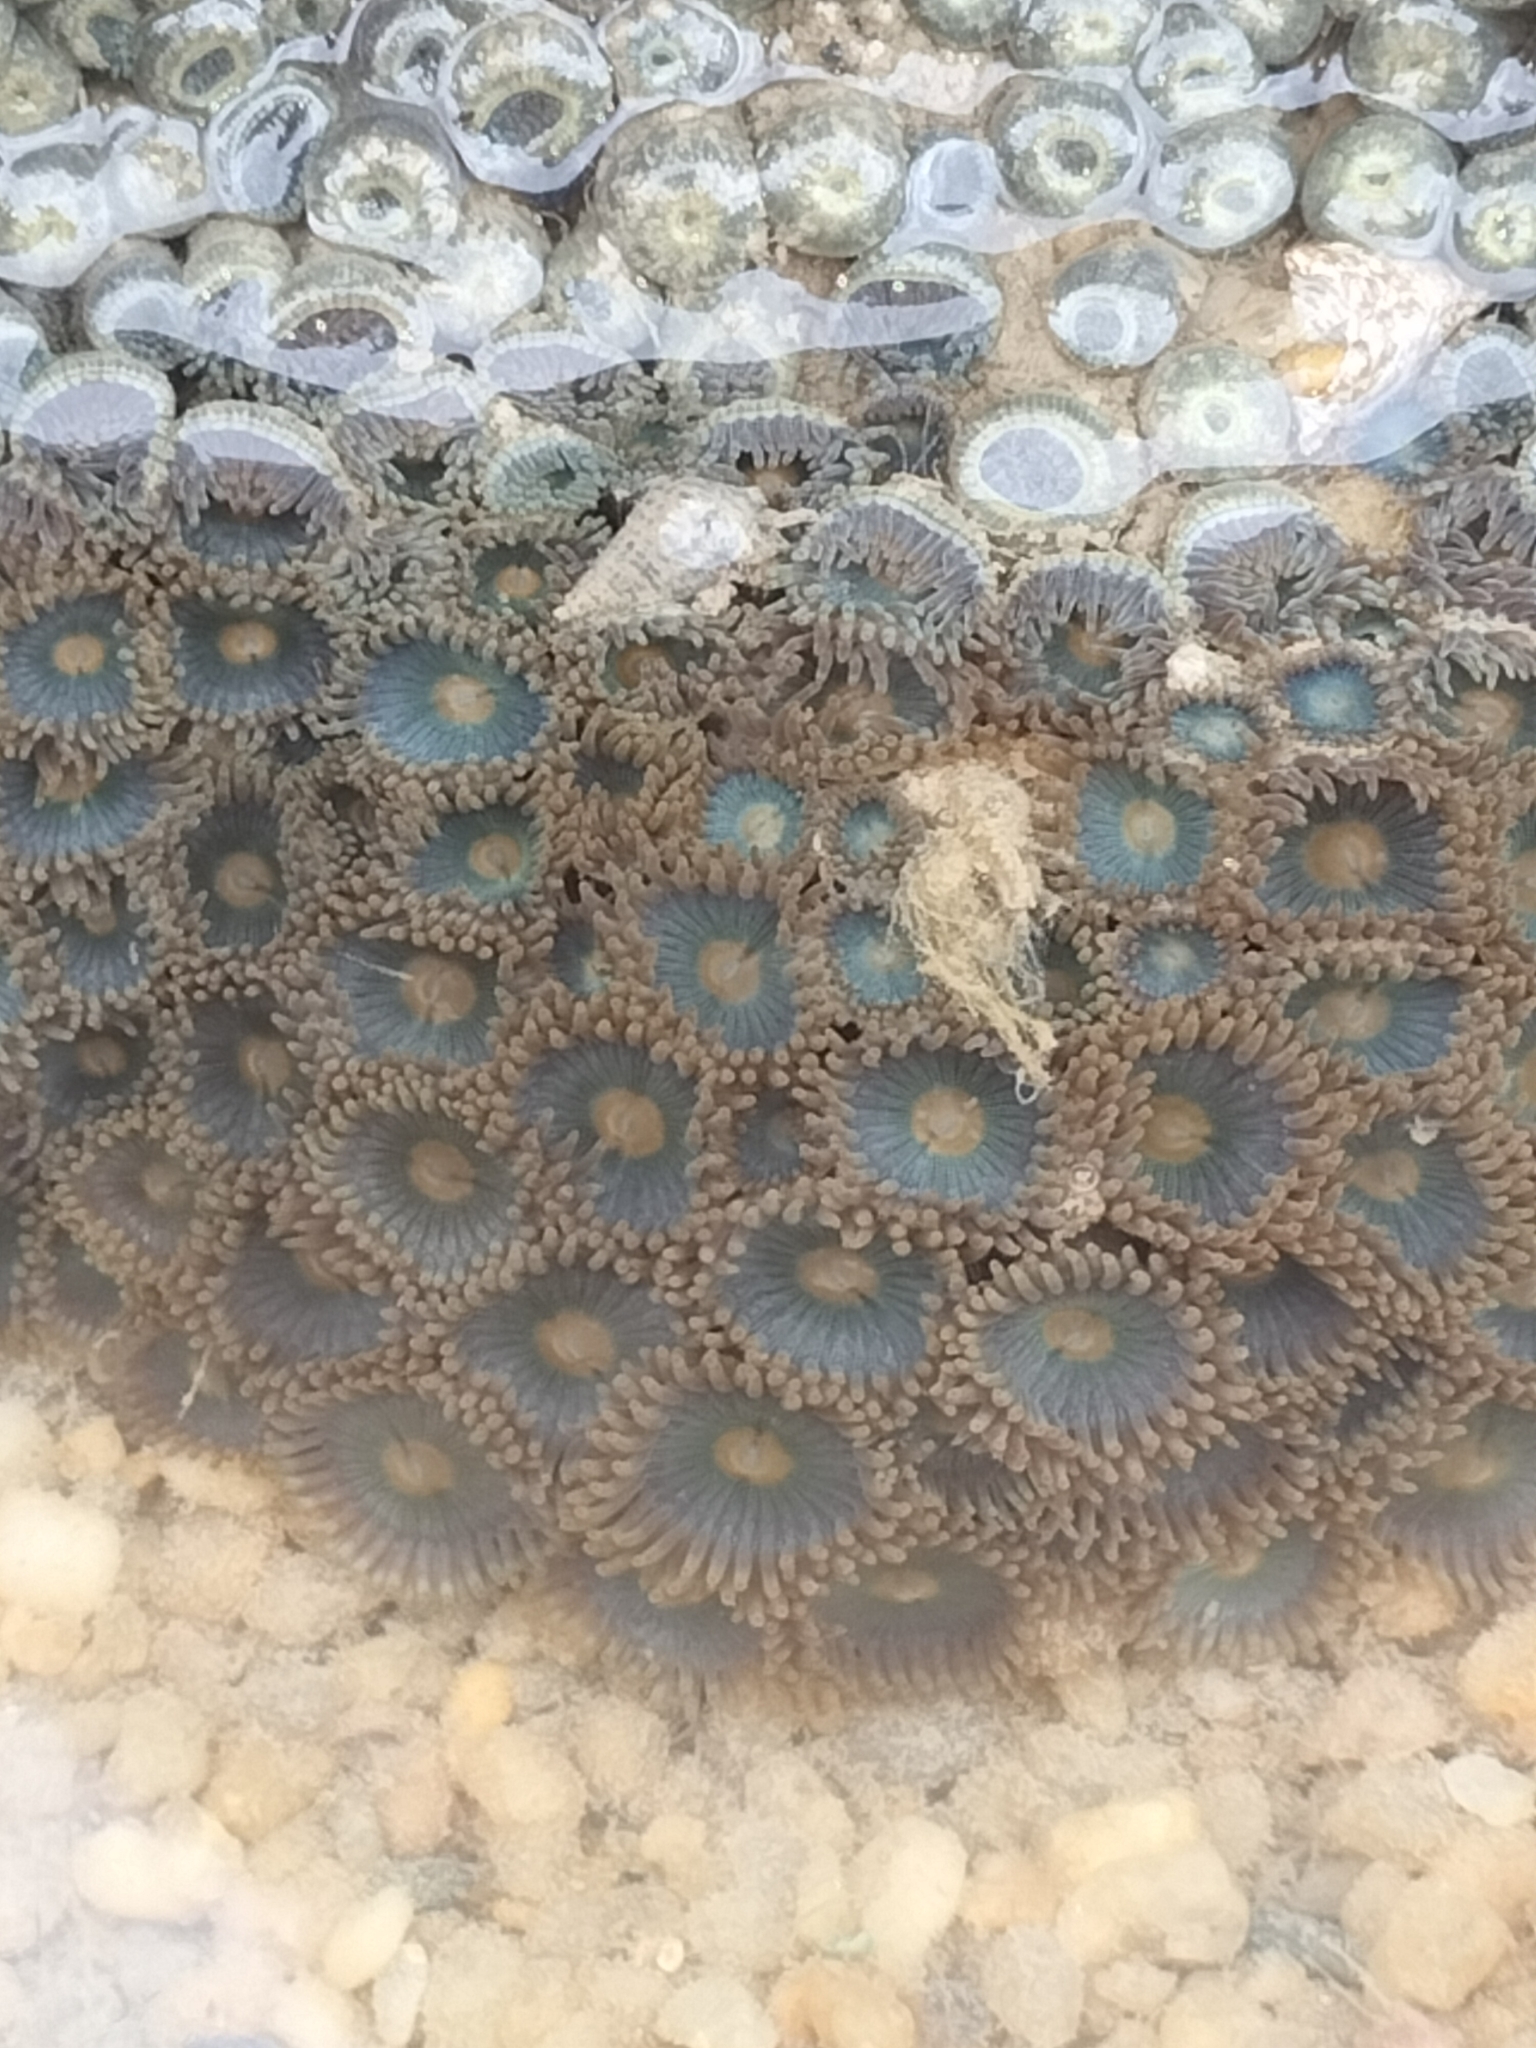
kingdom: Animalia
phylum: Cnidaria
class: Anthozoa
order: Zoantharia
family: Zoanthidae
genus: Zoanthus
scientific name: Zoanthus sansibaricus
